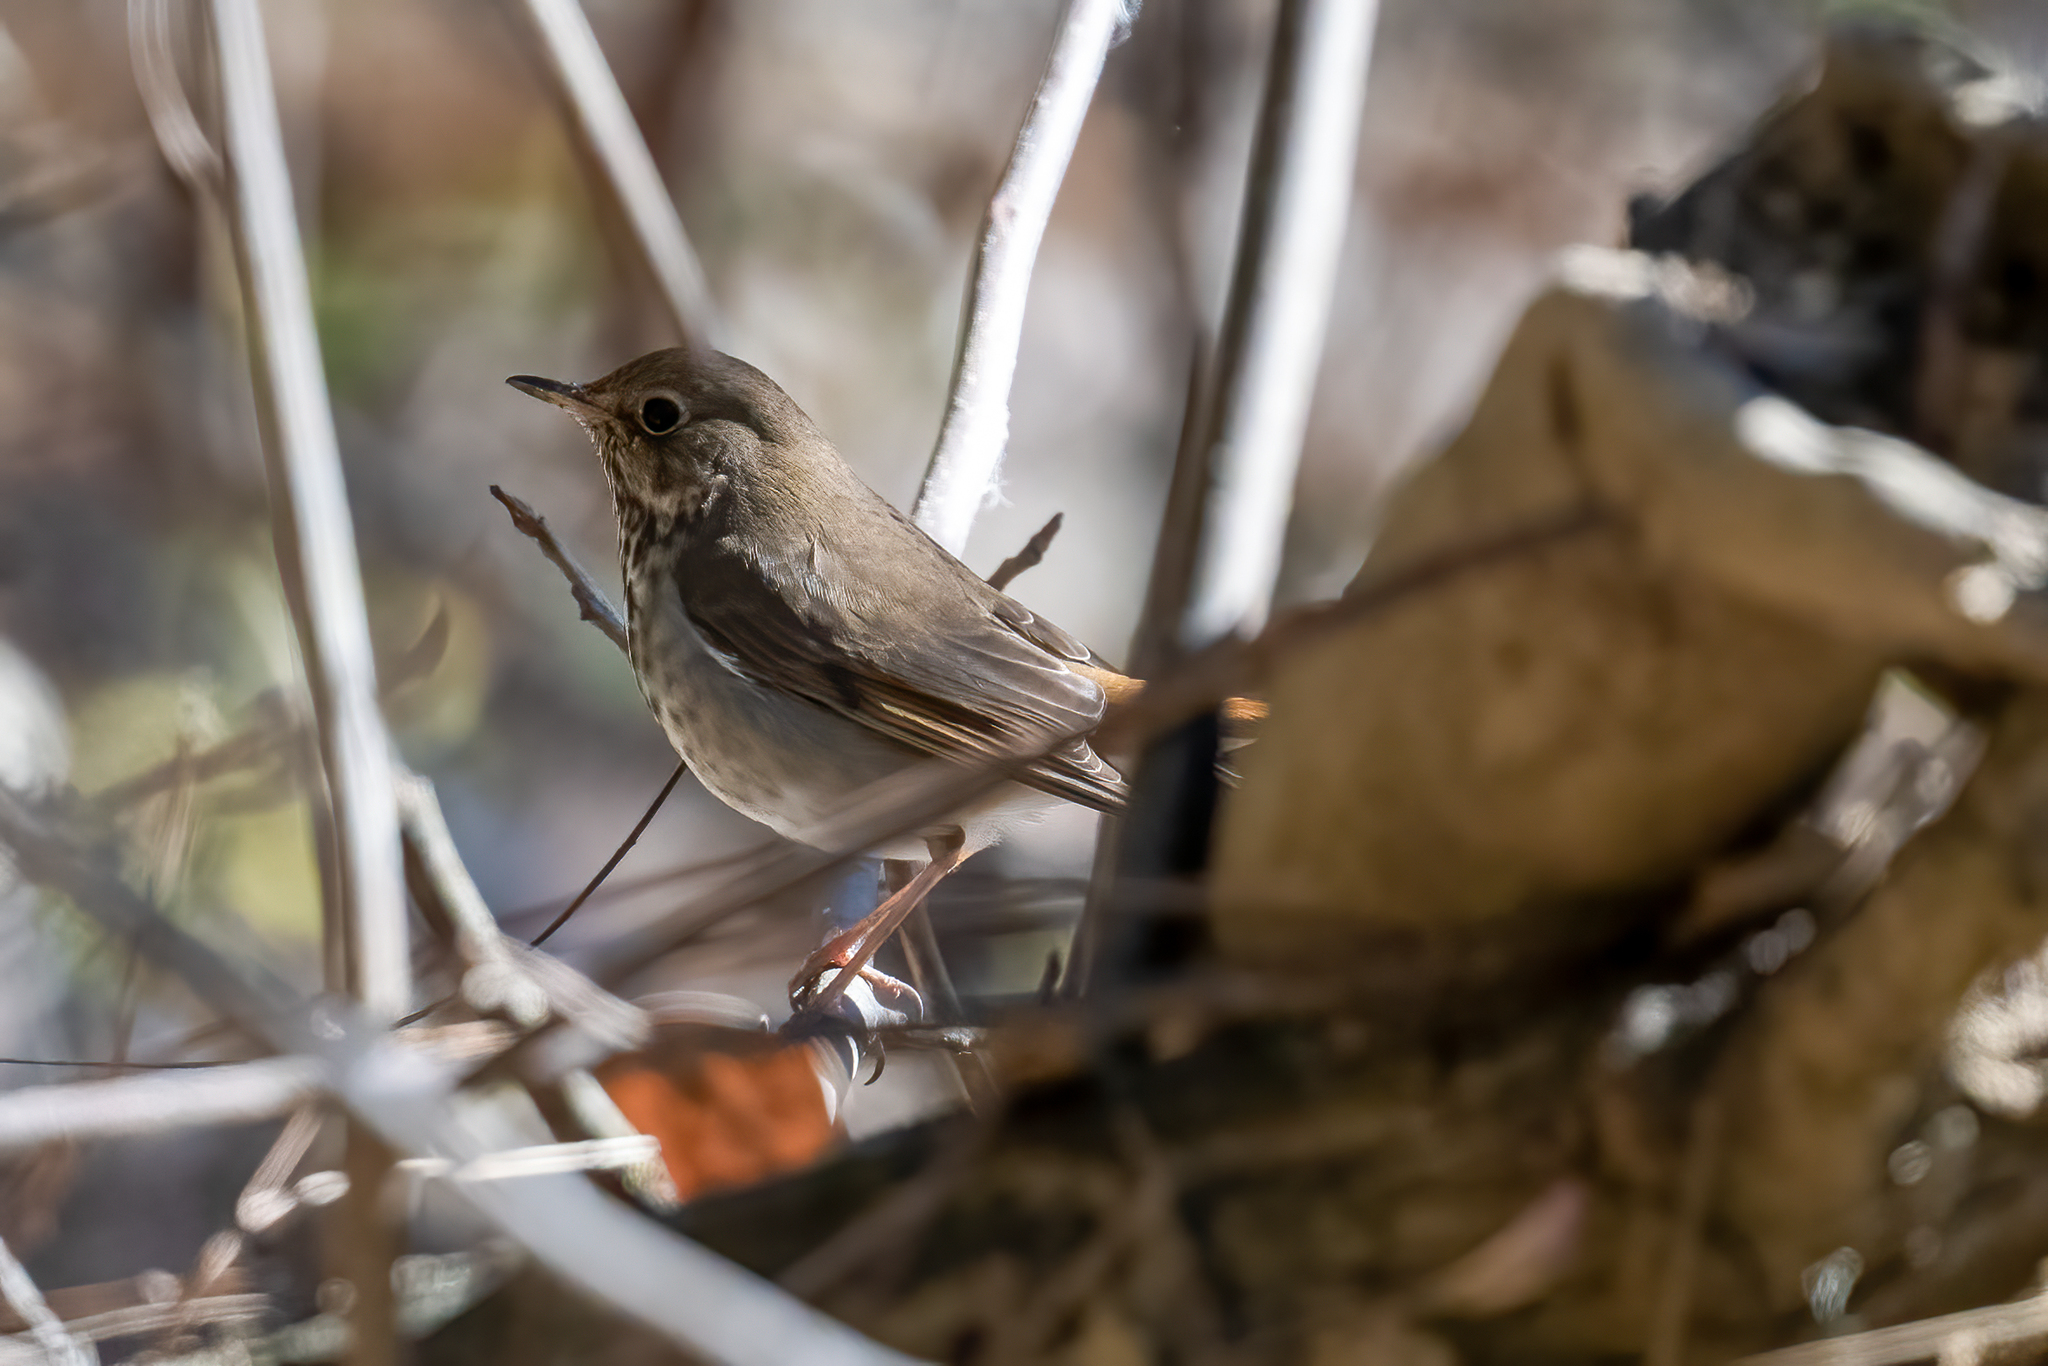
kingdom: Animalia
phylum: Chordata
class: Aves
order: Passeriformes
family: Turdidae
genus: Catharus
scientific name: Catharus guttatus
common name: Hermit thrush
